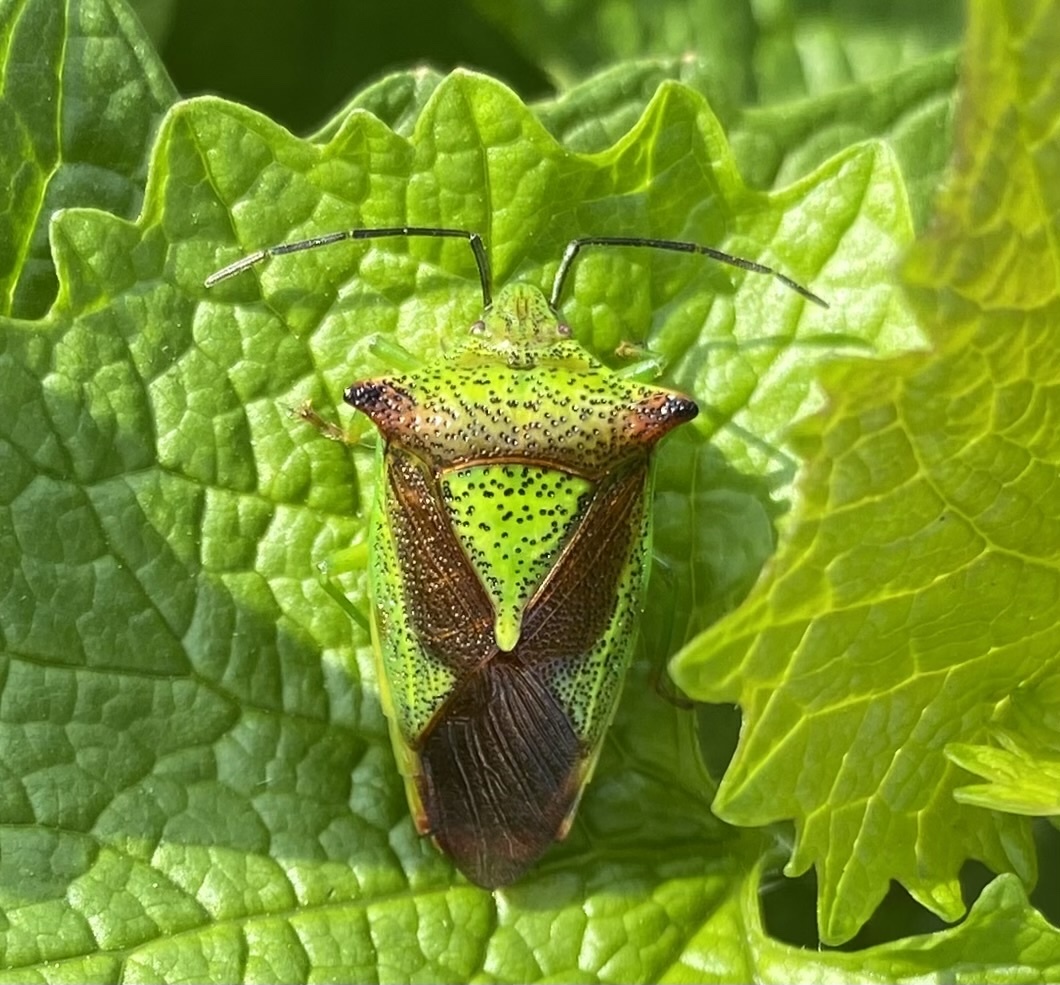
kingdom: Animalia
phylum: Arthropoda
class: Insecta
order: Hemiptera
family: Acanthosomatidae
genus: Acanthosoma
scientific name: Acanthosoma haemorrhoidale
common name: Hawthorn shieldbug
